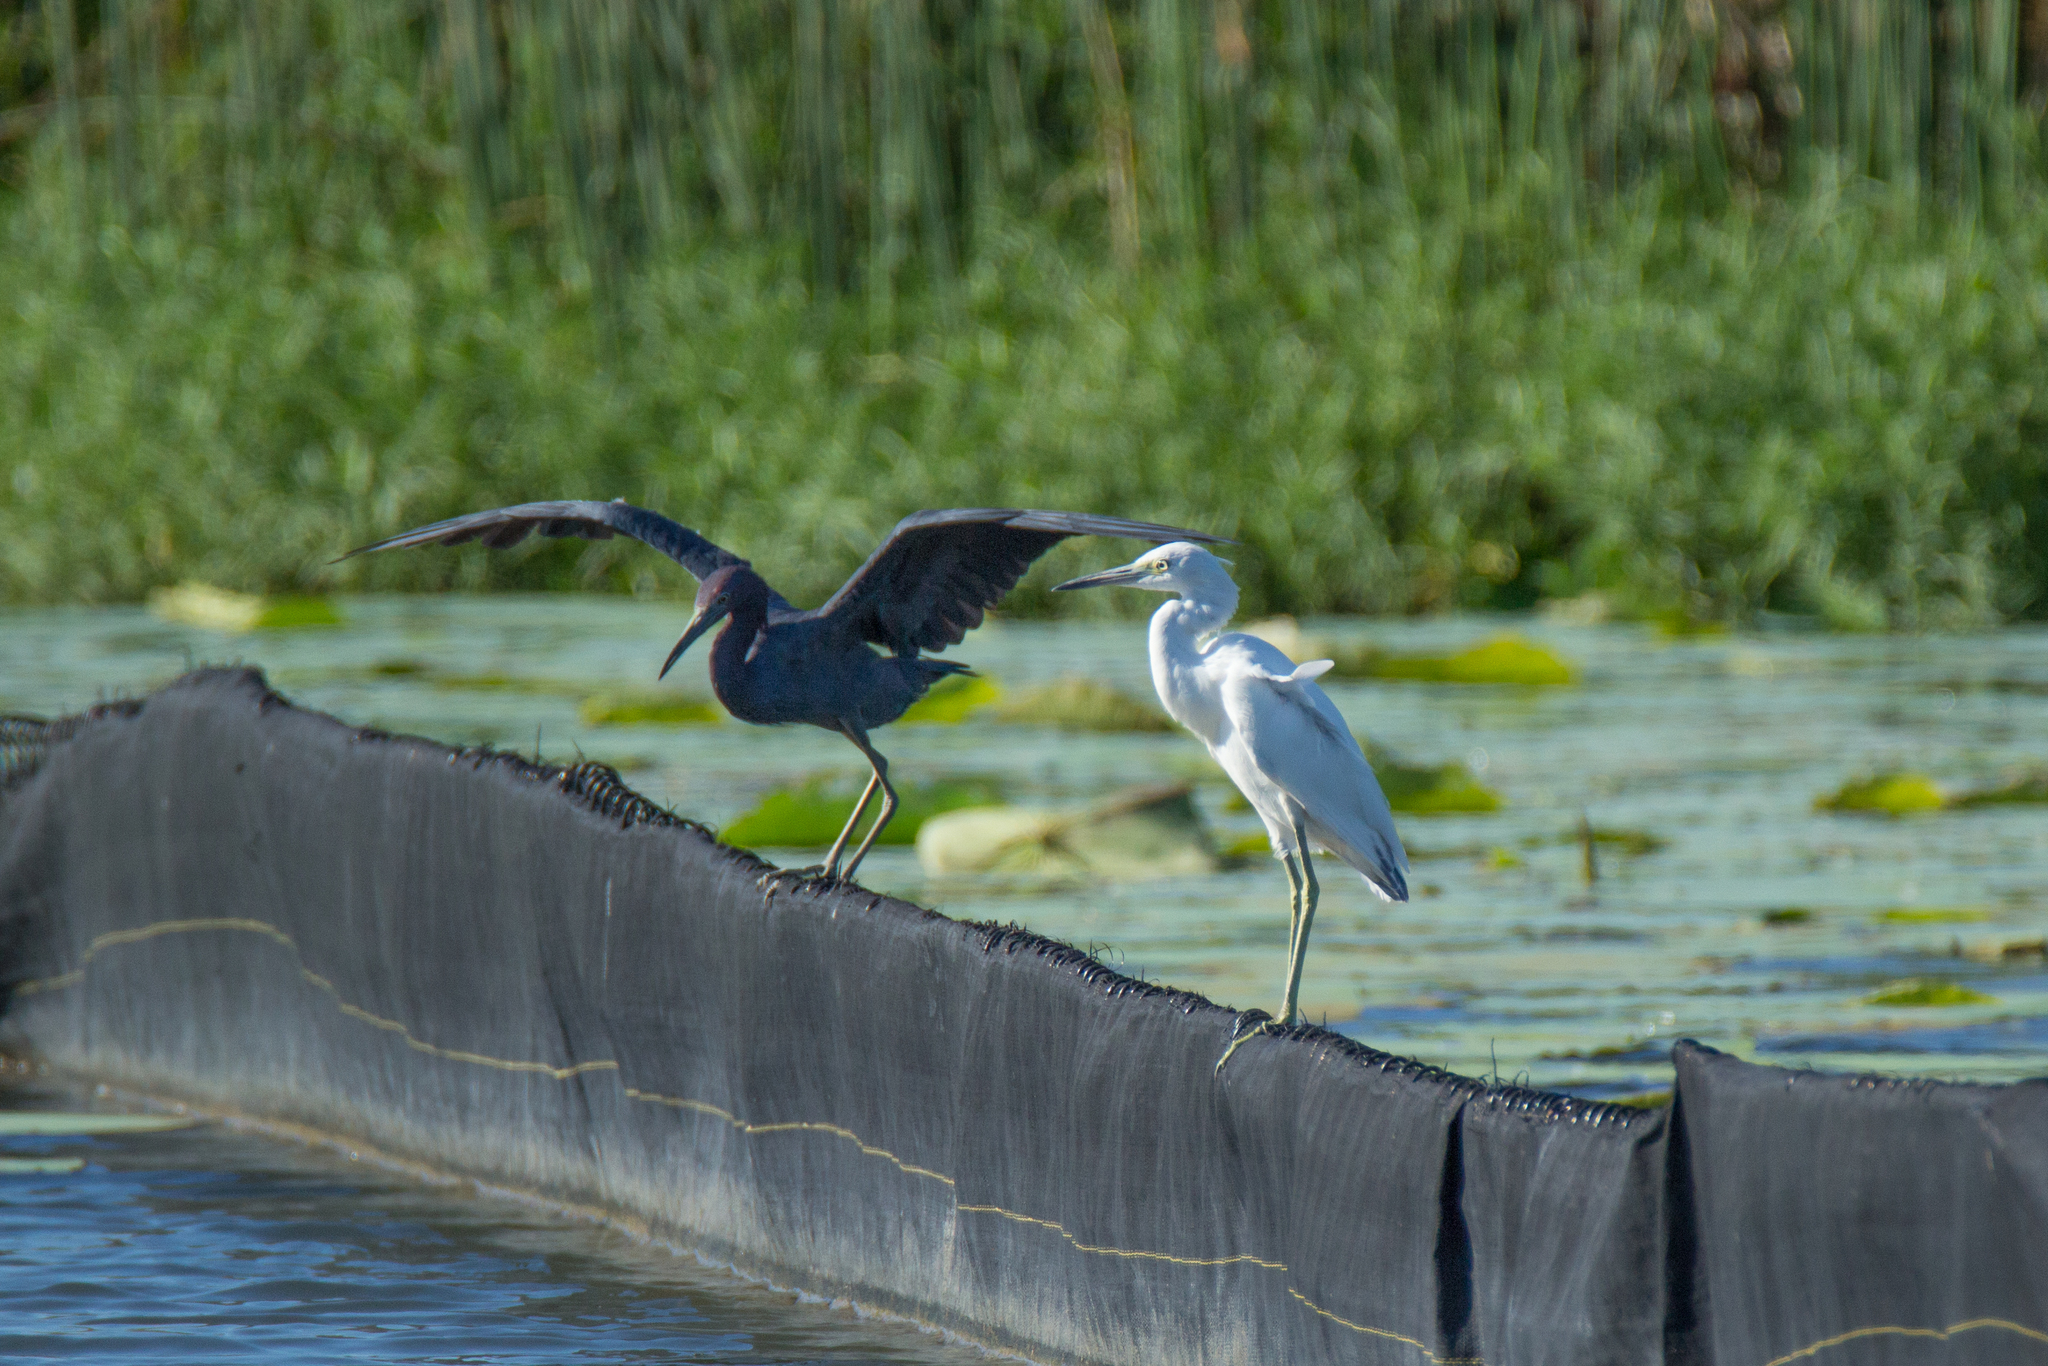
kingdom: Animalia
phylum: Chordata
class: Aves
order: Pelecaniformes
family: Ardeidae
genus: Egretta
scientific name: Egretta caerulea
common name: Little blue heron
